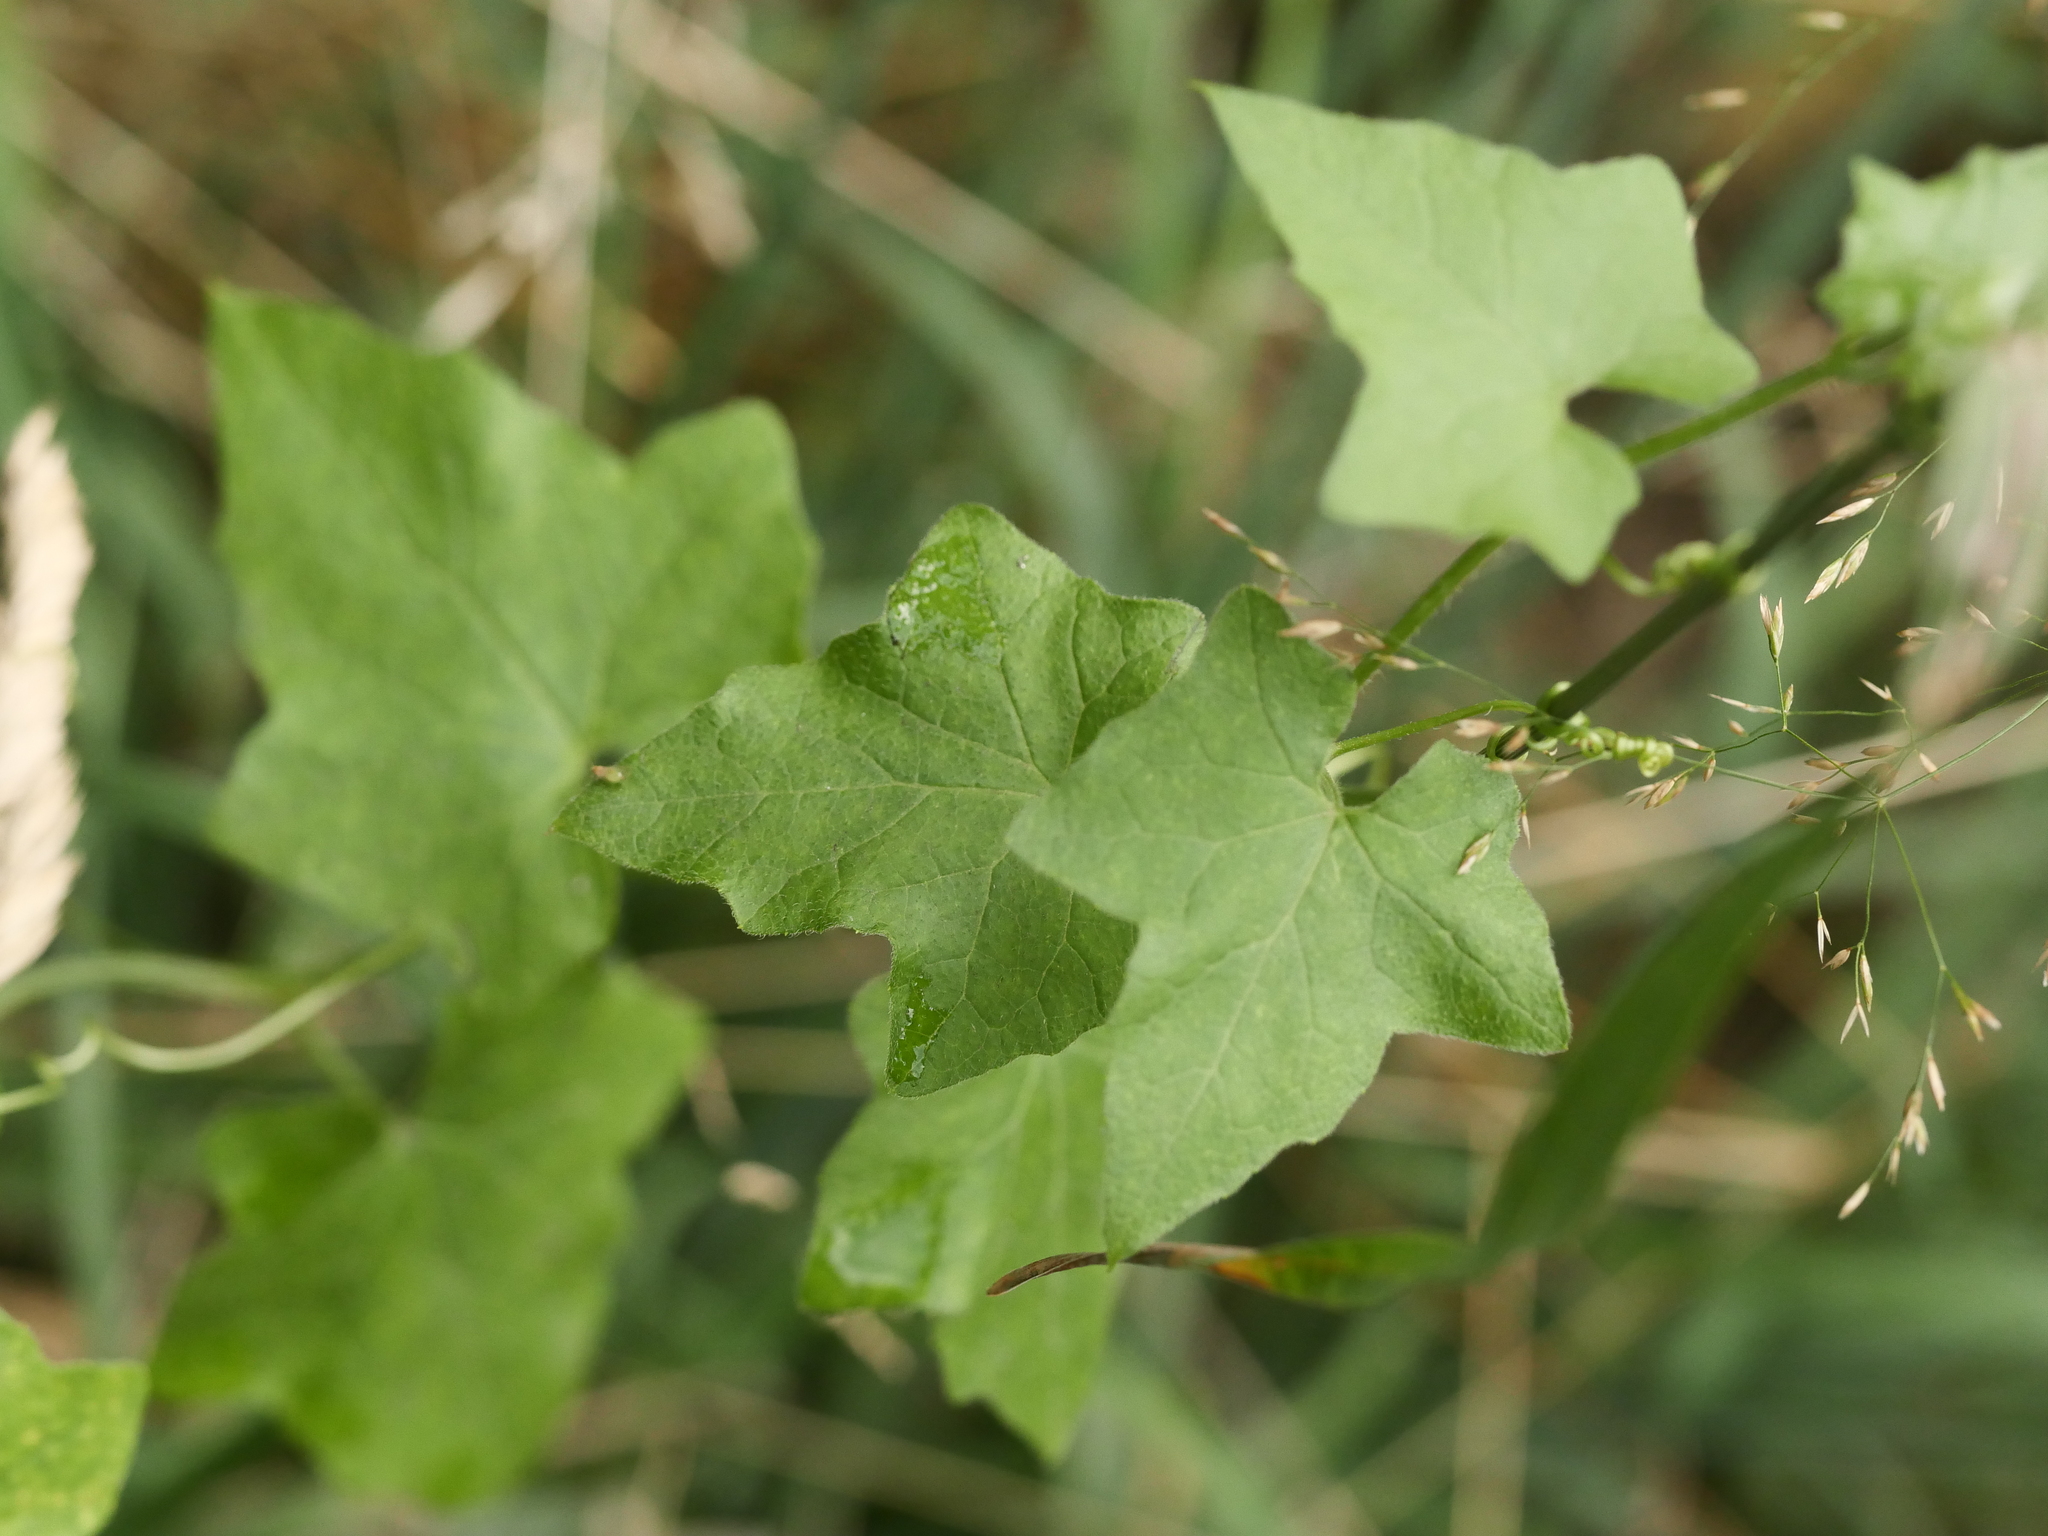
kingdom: Plantae
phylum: Tracheophyta
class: Magnoliopsida
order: Cucurbitales
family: Cucurbitaceae
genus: Bryonia
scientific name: Bryonia cretica
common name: Cretan bryony
